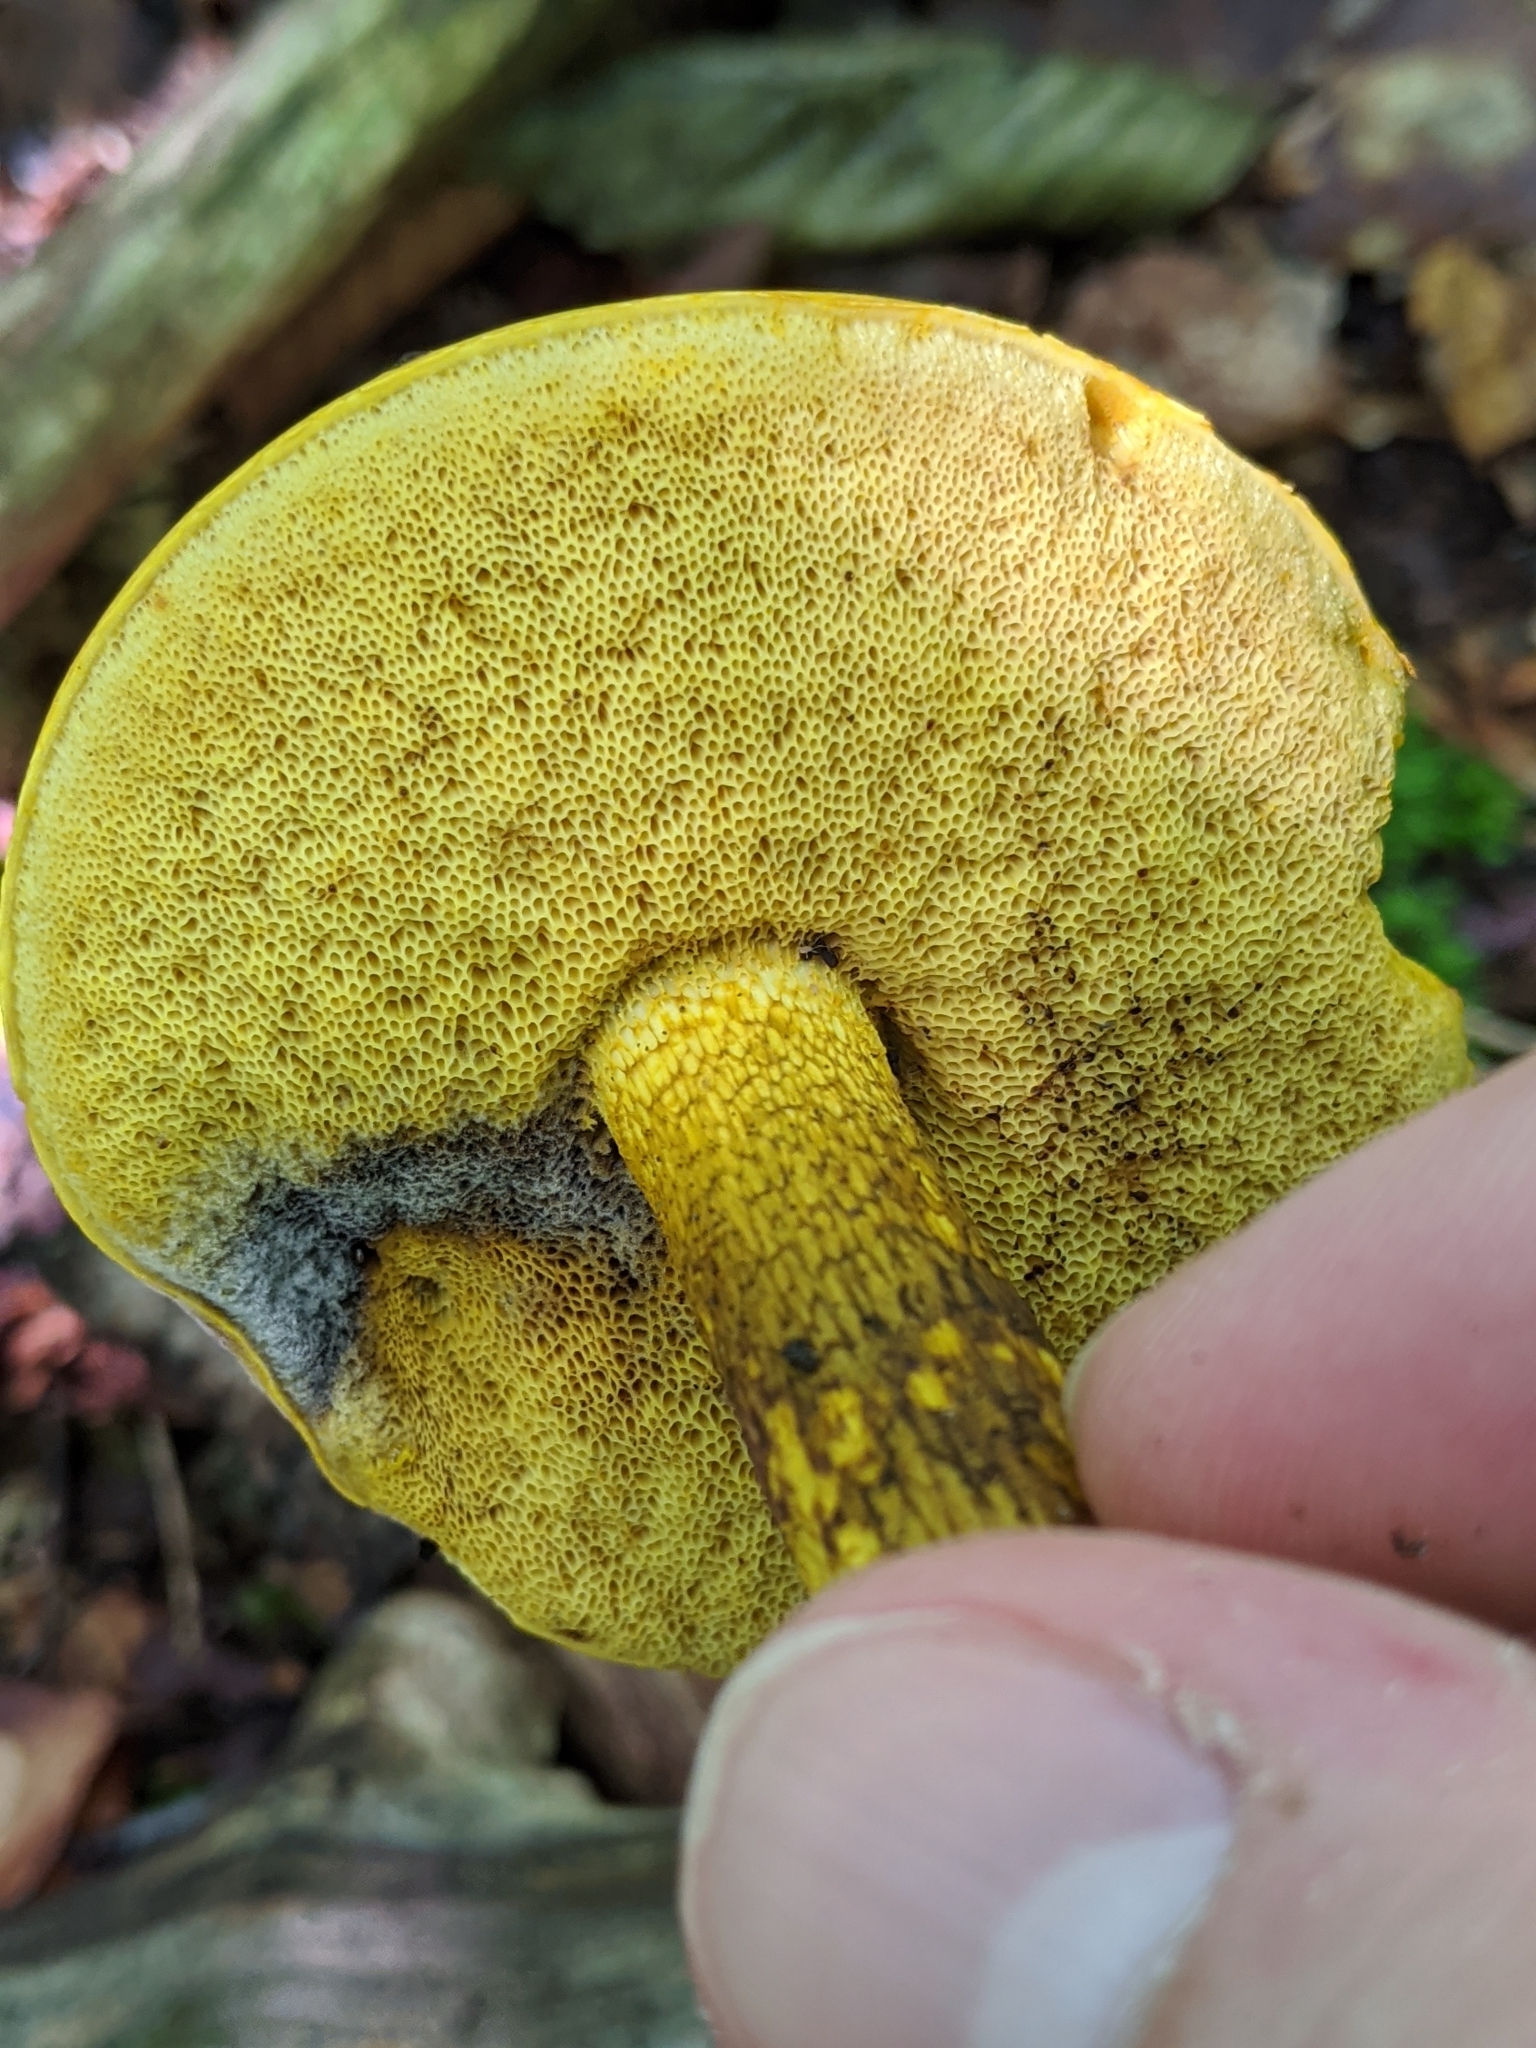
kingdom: Fungi
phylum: Basidiomycota
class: Agaricomycetes
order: Boletales
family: Boletaceae
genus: Retiboletus
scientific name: Retiboletus ornatipes
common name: Ornate-stalked bolete
